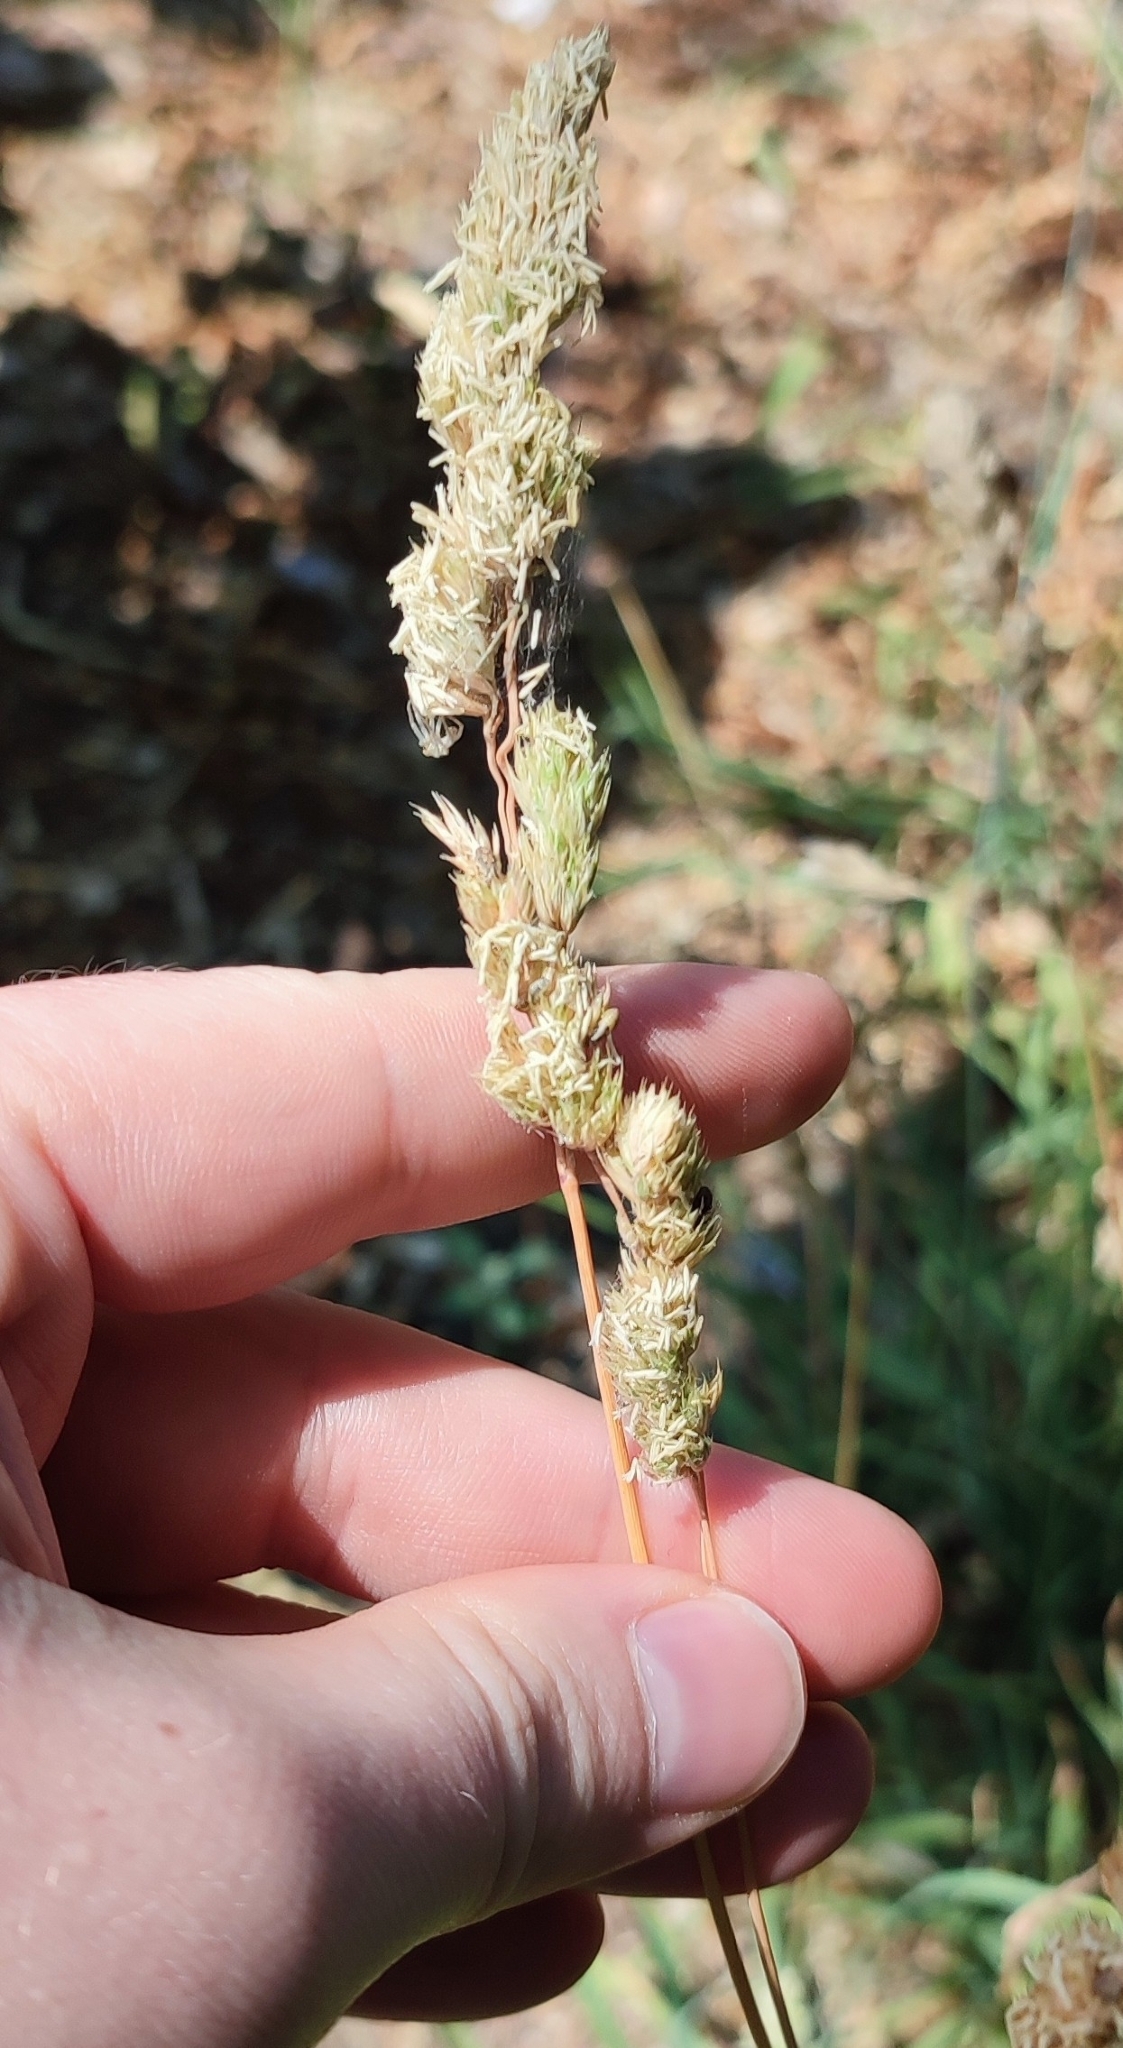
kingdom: Plantae
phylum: Tracheophyta
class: Liliopsida
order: Poales
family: Poaceae
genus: Dactylis
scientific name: Dactylis glomerata
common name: Orchardgrass
